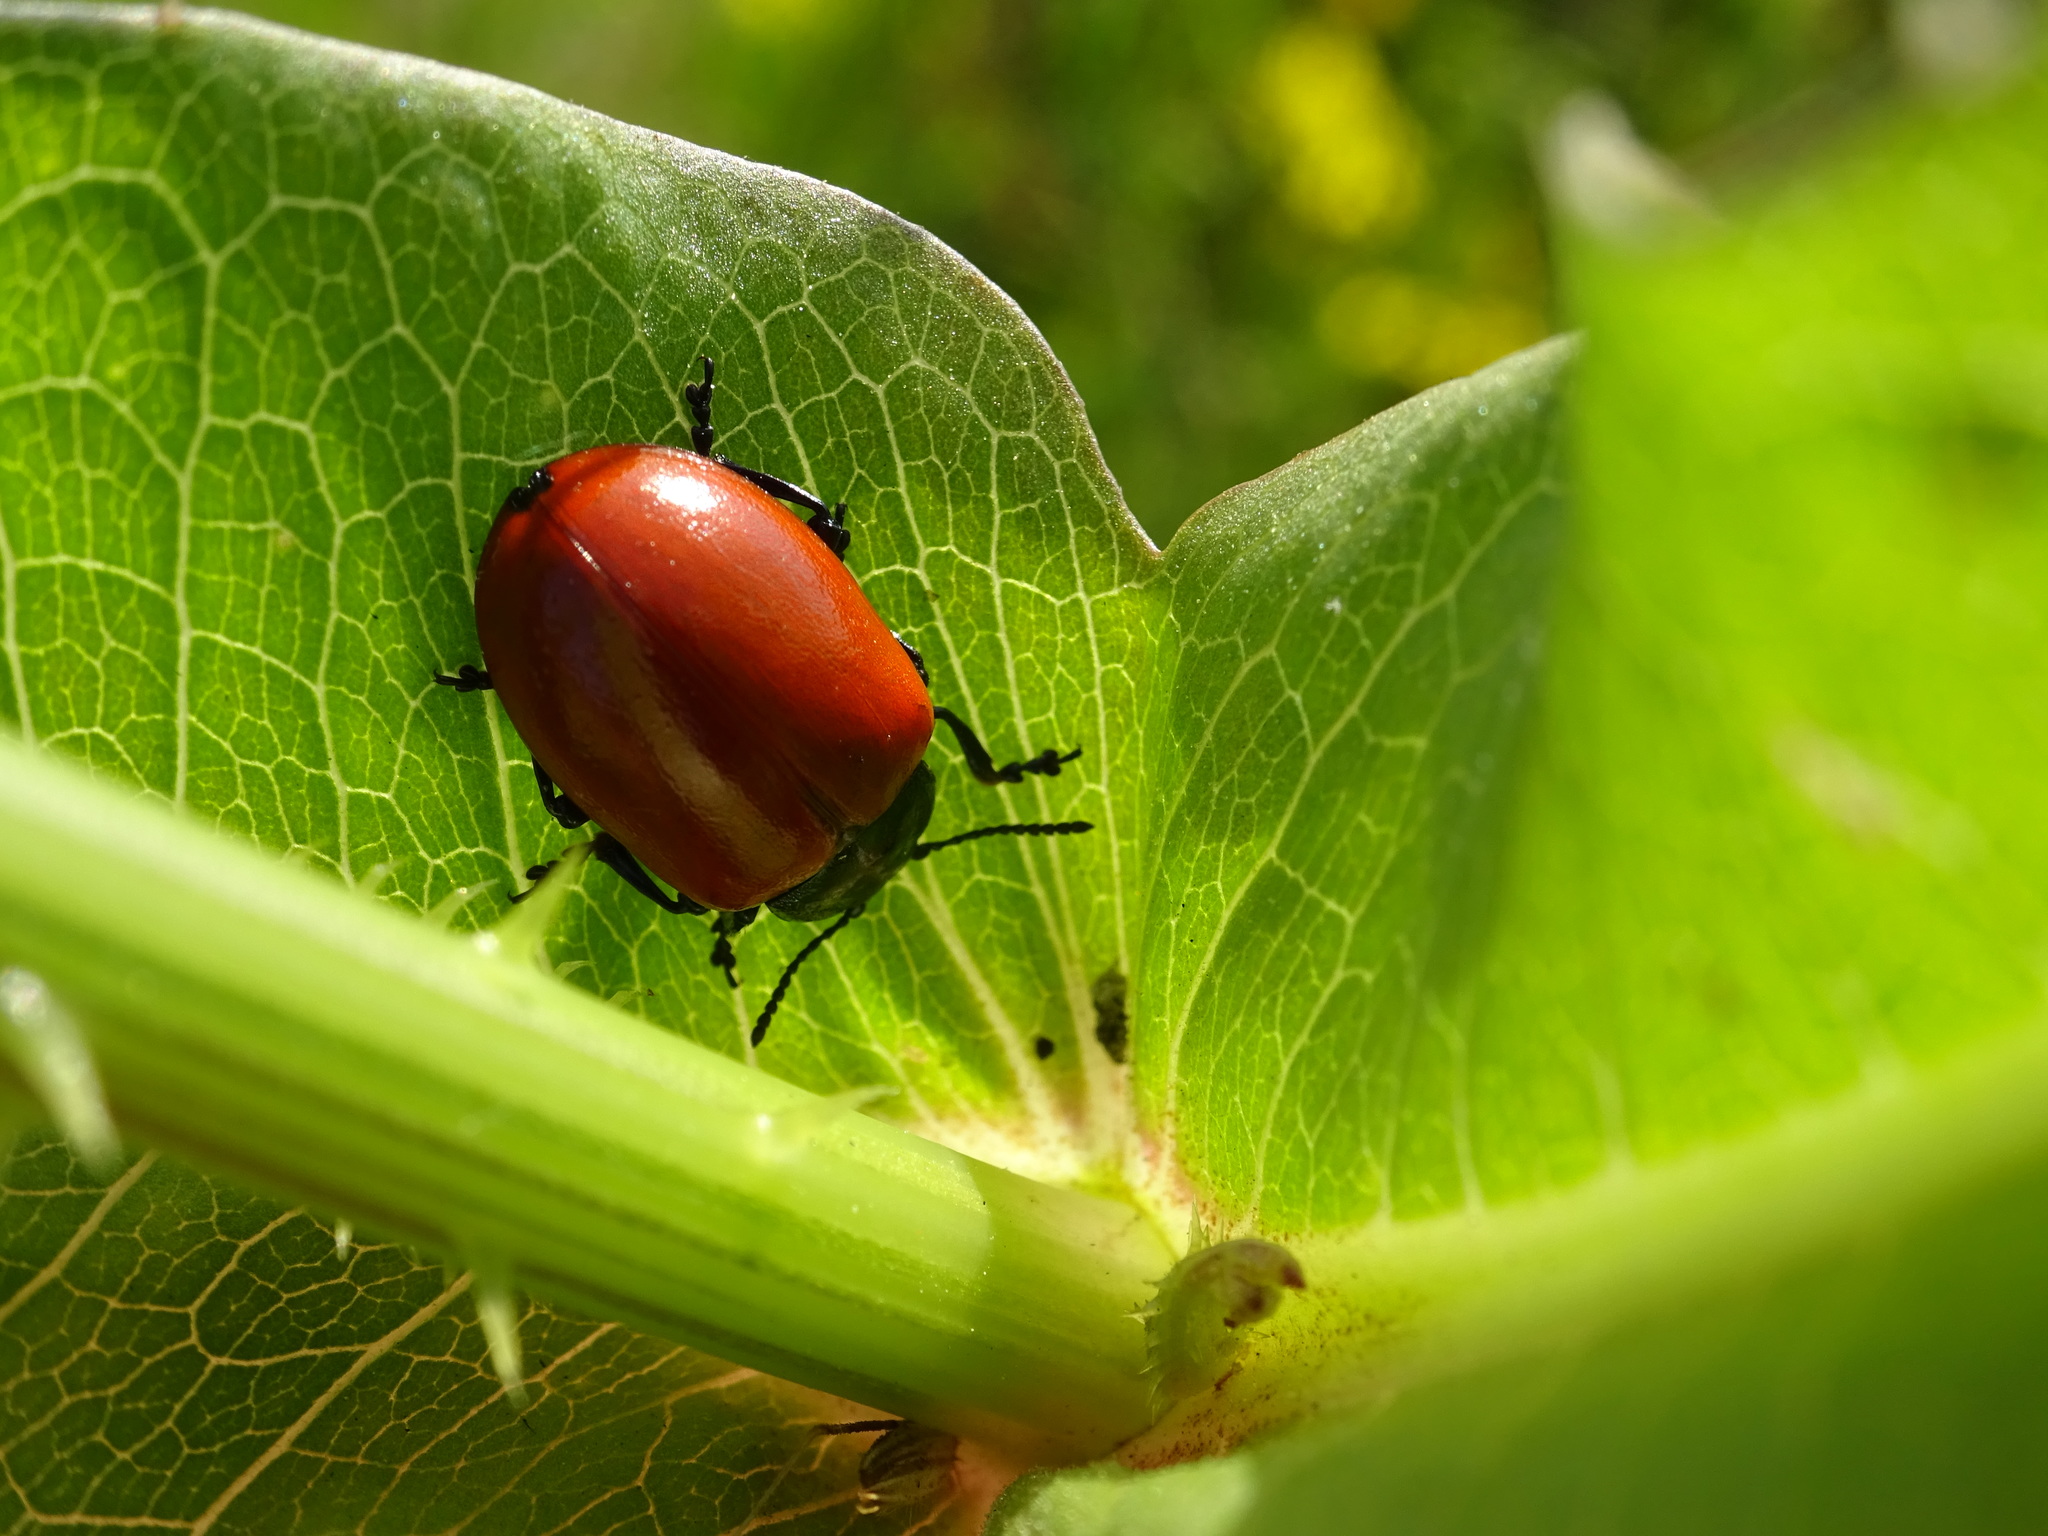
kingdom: Animalia
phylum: Arthropoda
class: Insecta
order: Coleoptera
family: Chrysomelidae
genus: Chrysomela
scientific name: Chrysomela populi
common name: Red poplar leaf beetle
